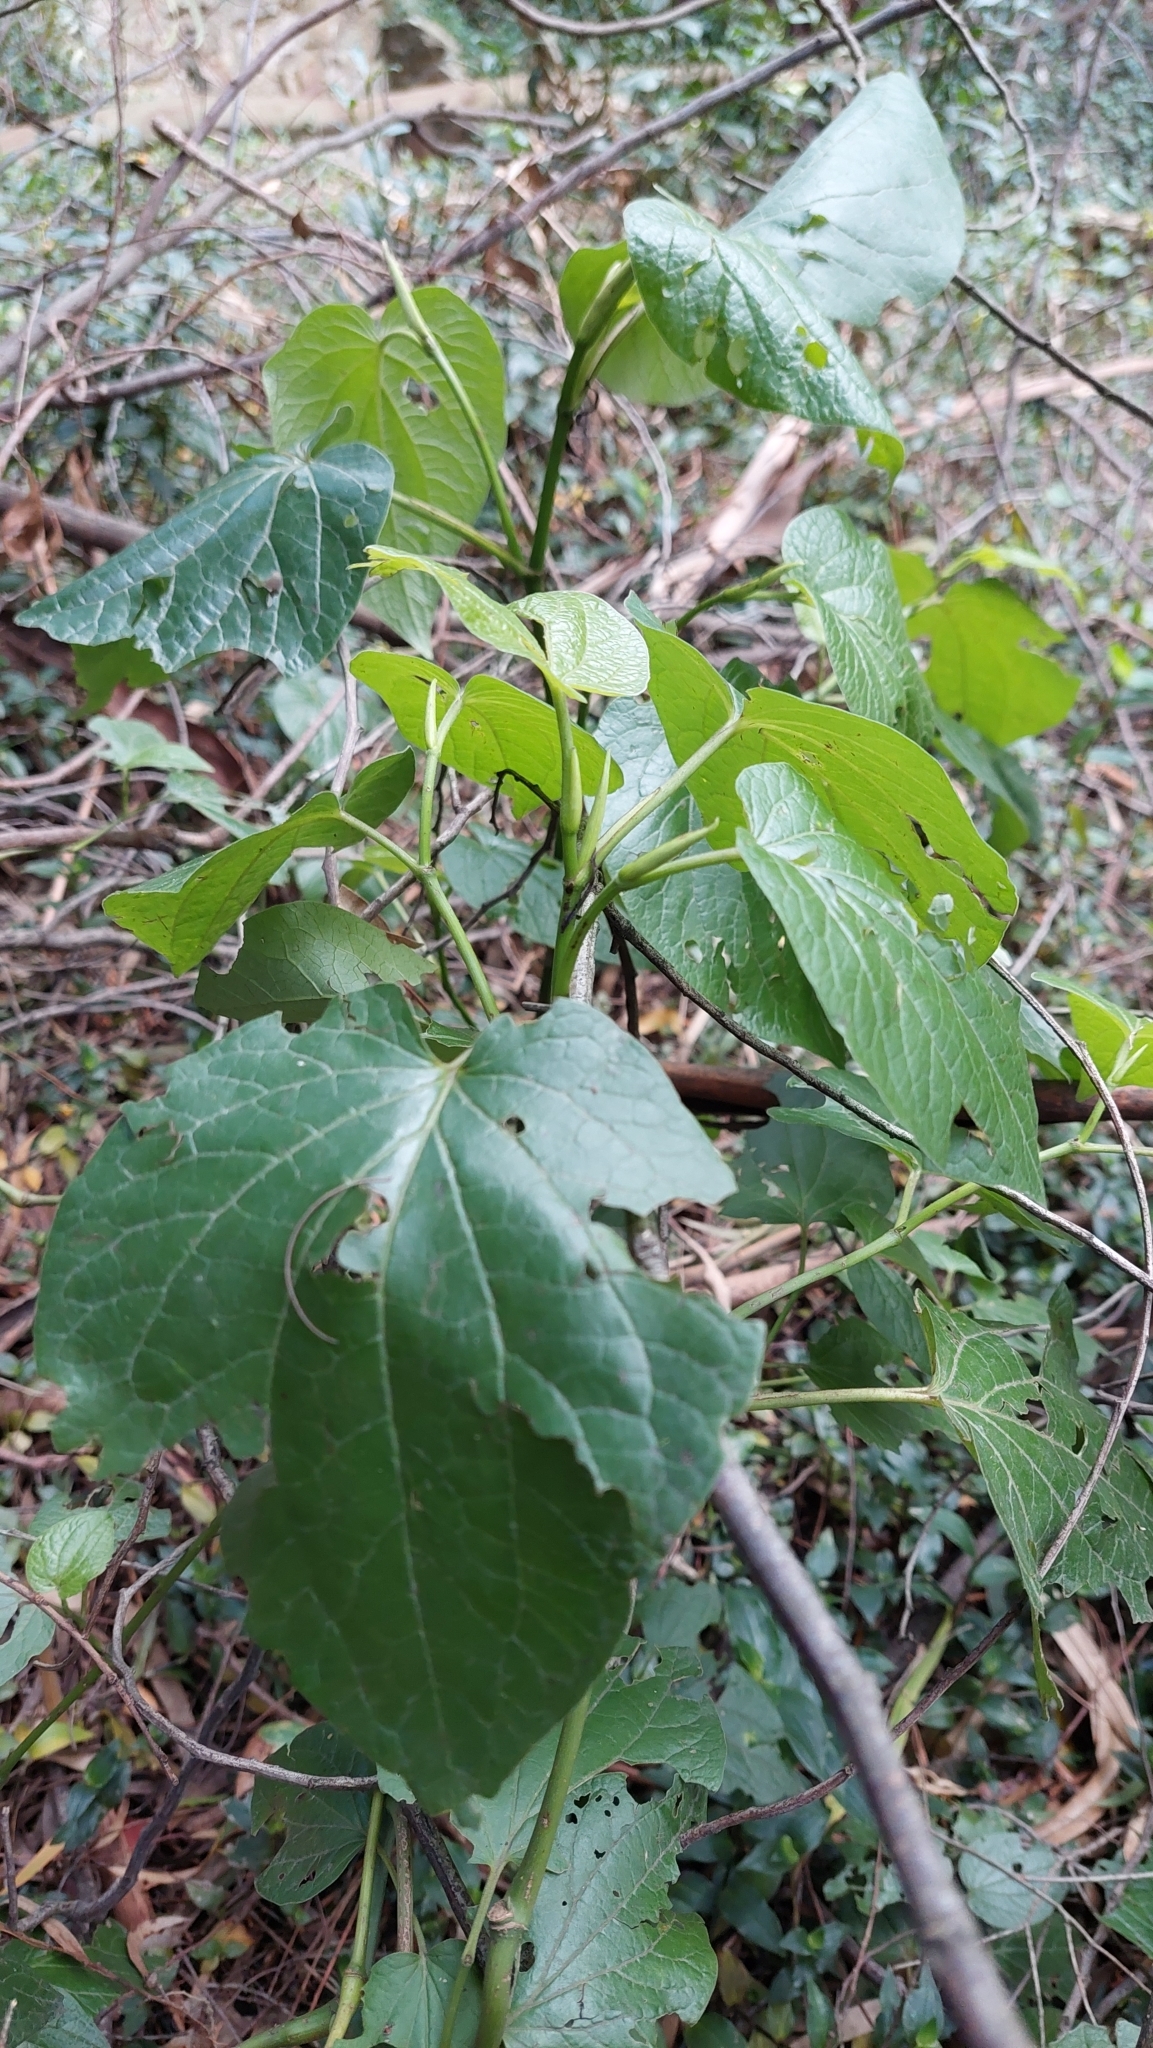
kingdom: Plantae
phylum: Tracheophyta
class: Magnoliopsida
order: Piperales
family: Piperaceae
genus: Piper
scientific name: Piper barbatum
